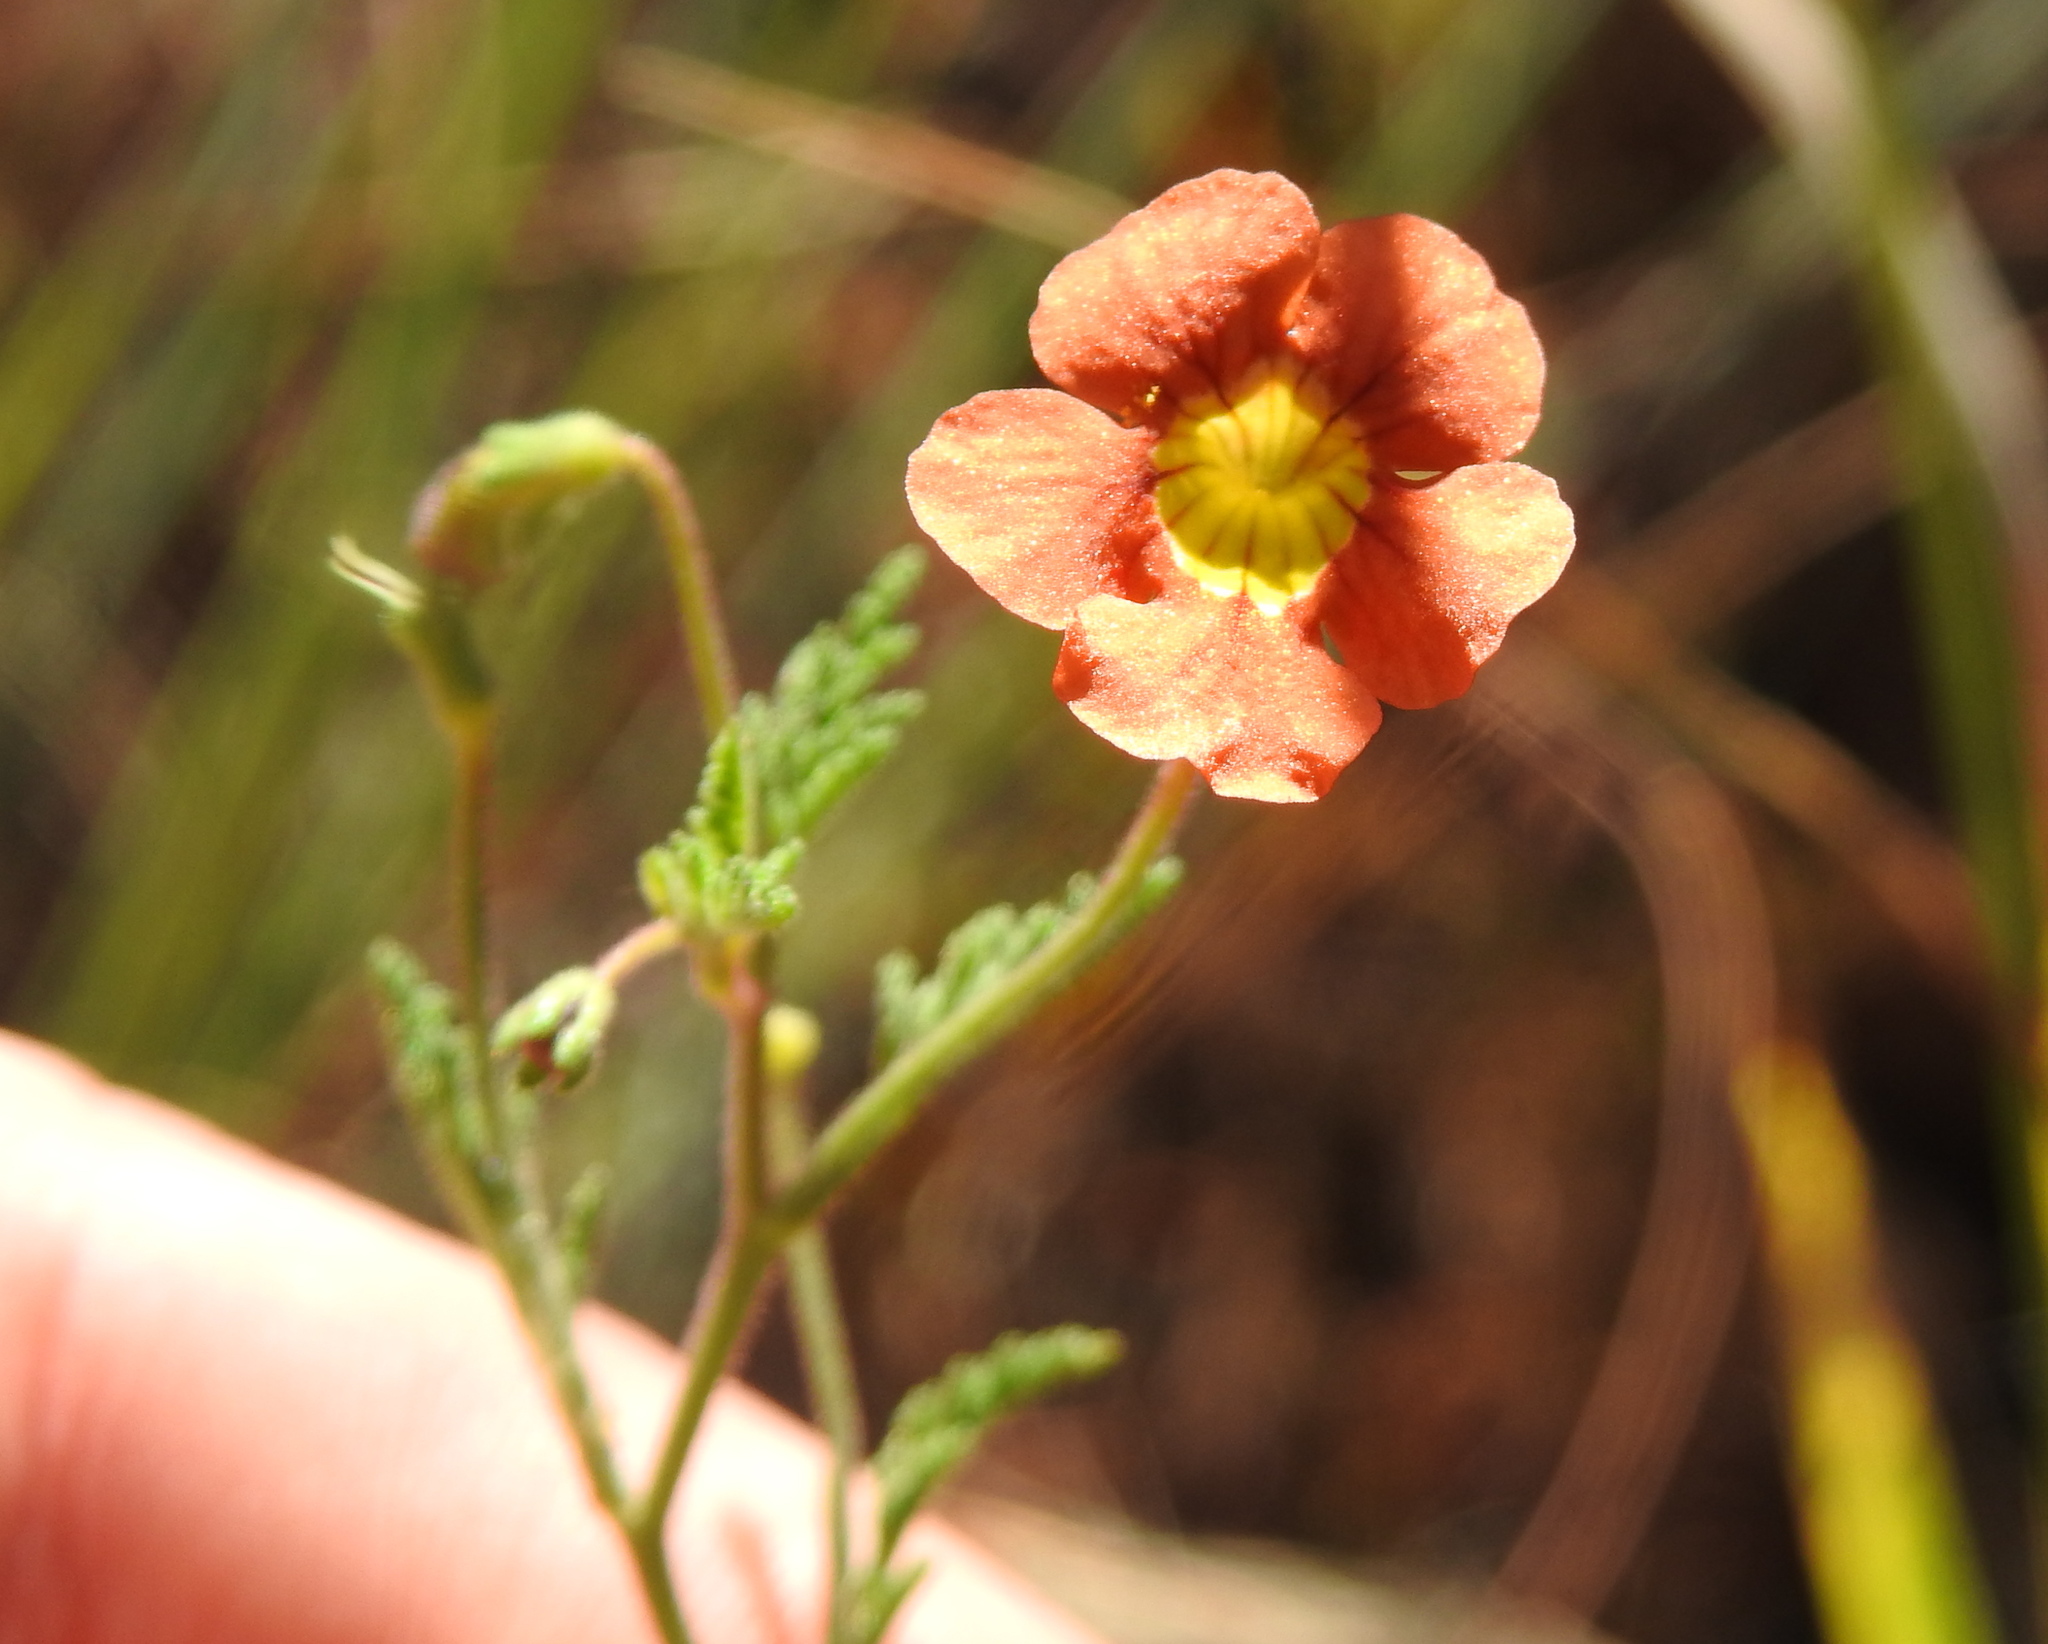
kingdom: Plantae
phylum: Tracheophyta
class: Magnoliopsida
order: Lamiales
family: Scrophulariaceae
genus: Jamesbrittenia
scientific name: Jamesbrittenia aurantiaca
